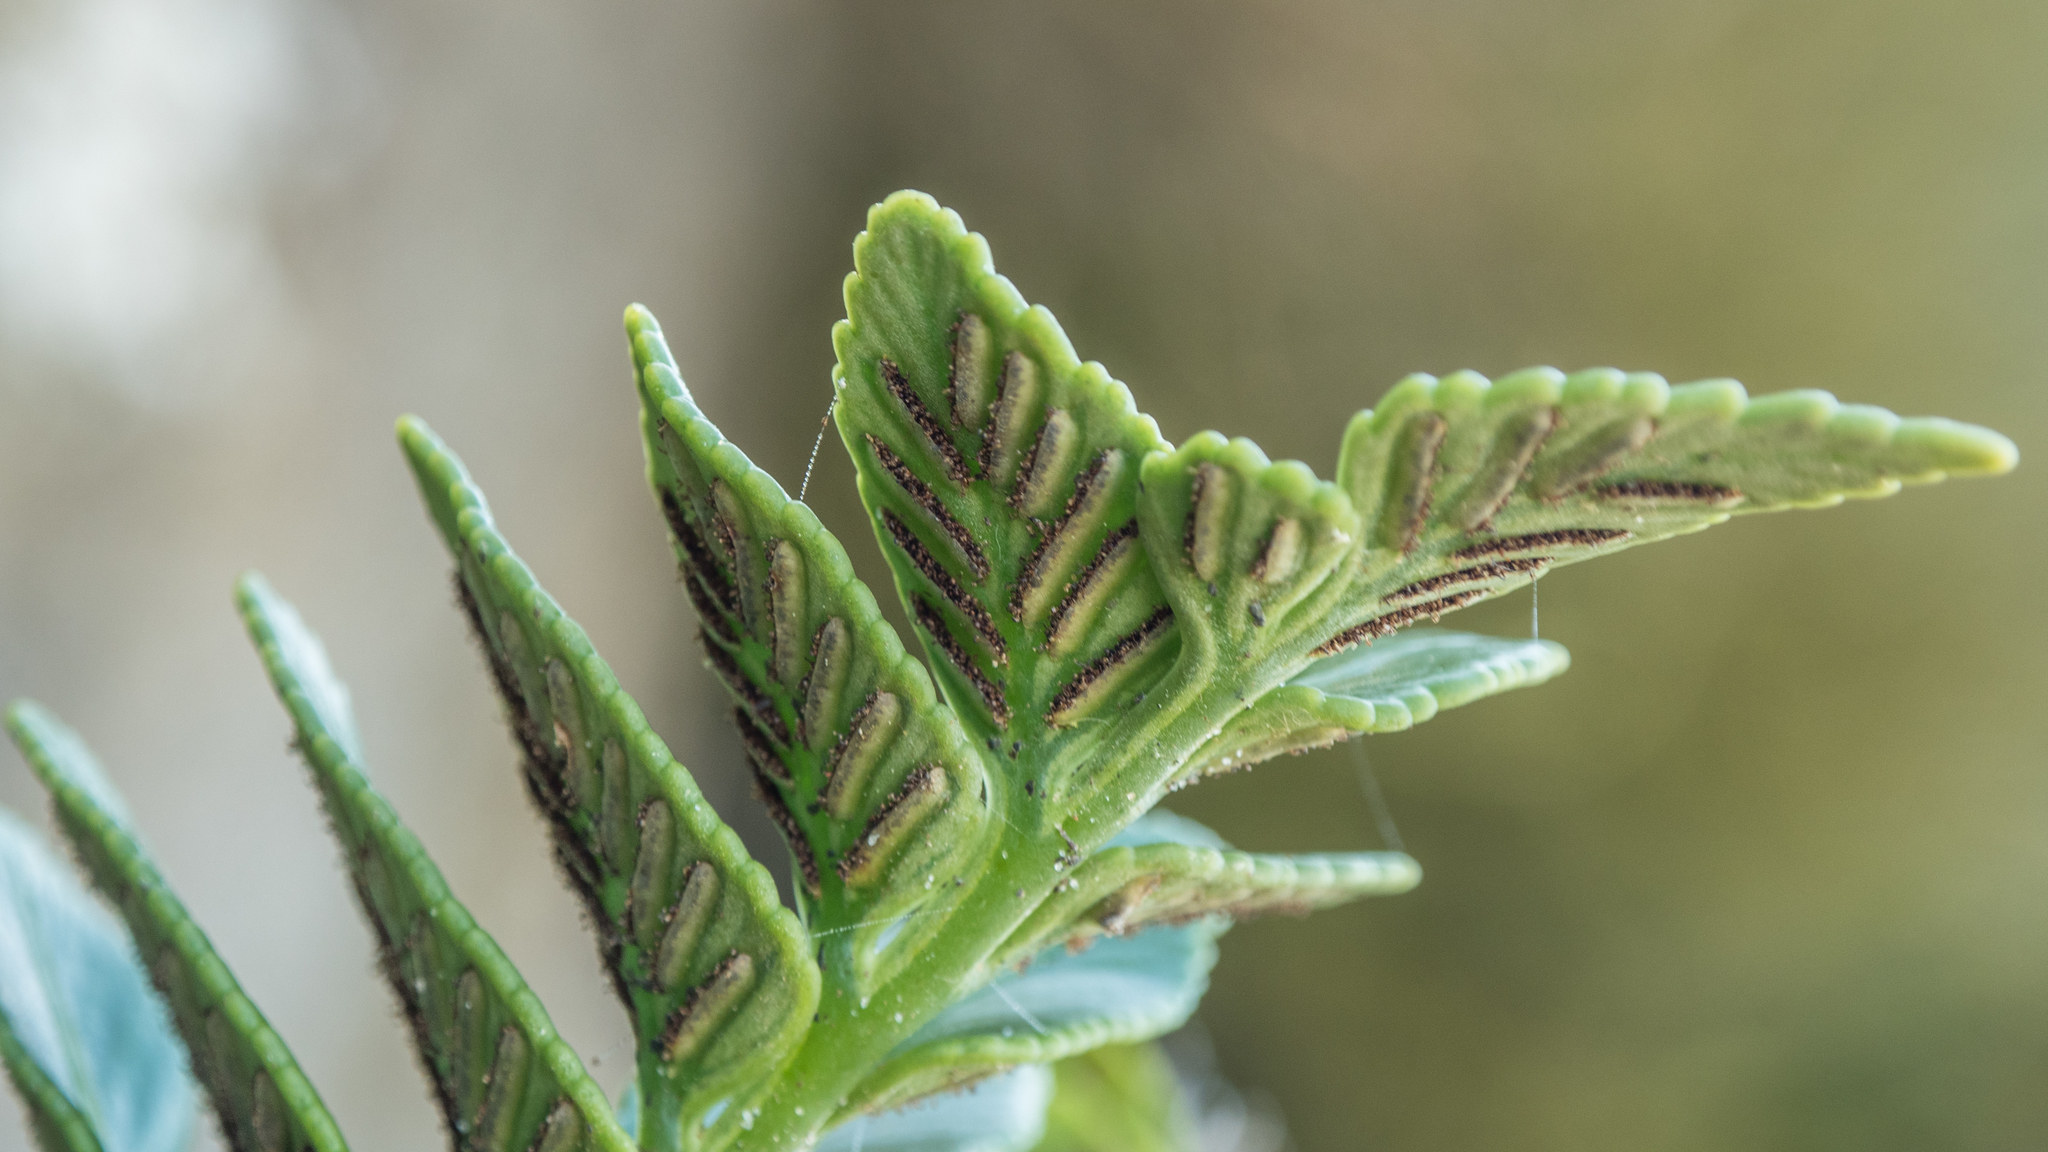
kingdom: Plantae
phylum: Tracheophyta
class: Polypodiopsida
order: Polypodiales
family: Aspleniaceae
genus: Asplenium
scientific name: Asplenium obtusatum
